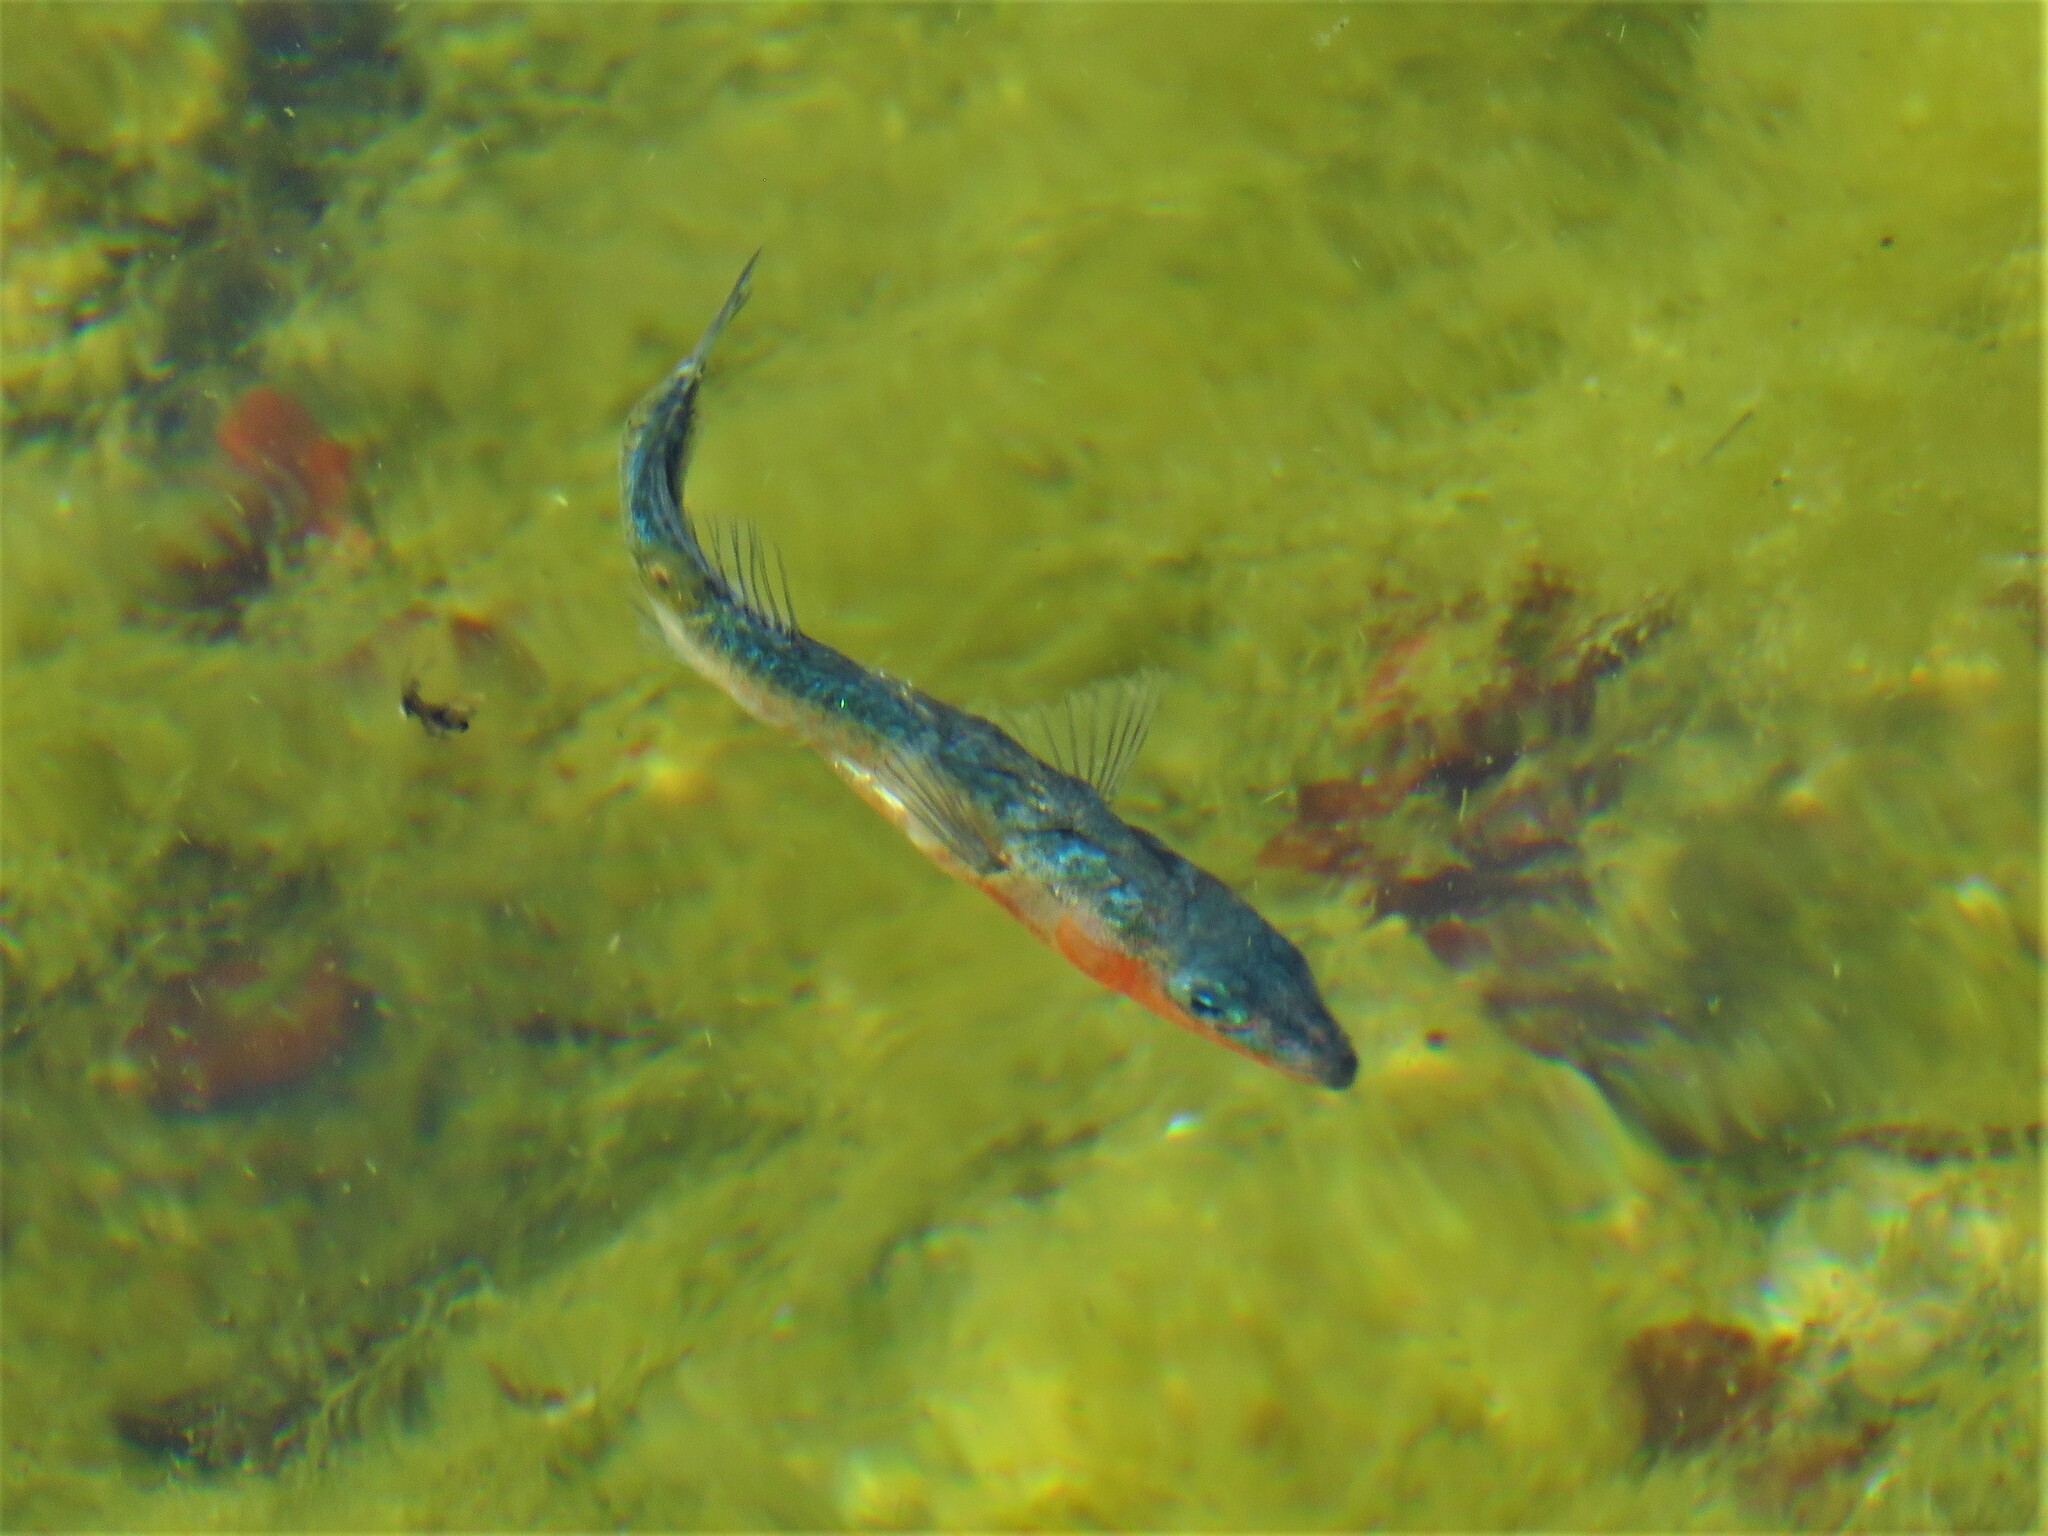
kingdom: Animalia
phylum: Chordata
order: Gasterosteiformes
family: Gasterosteidae
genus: Gasterosteus
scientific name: Gasterosteus aculeatus
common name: Three-spined stickleback
